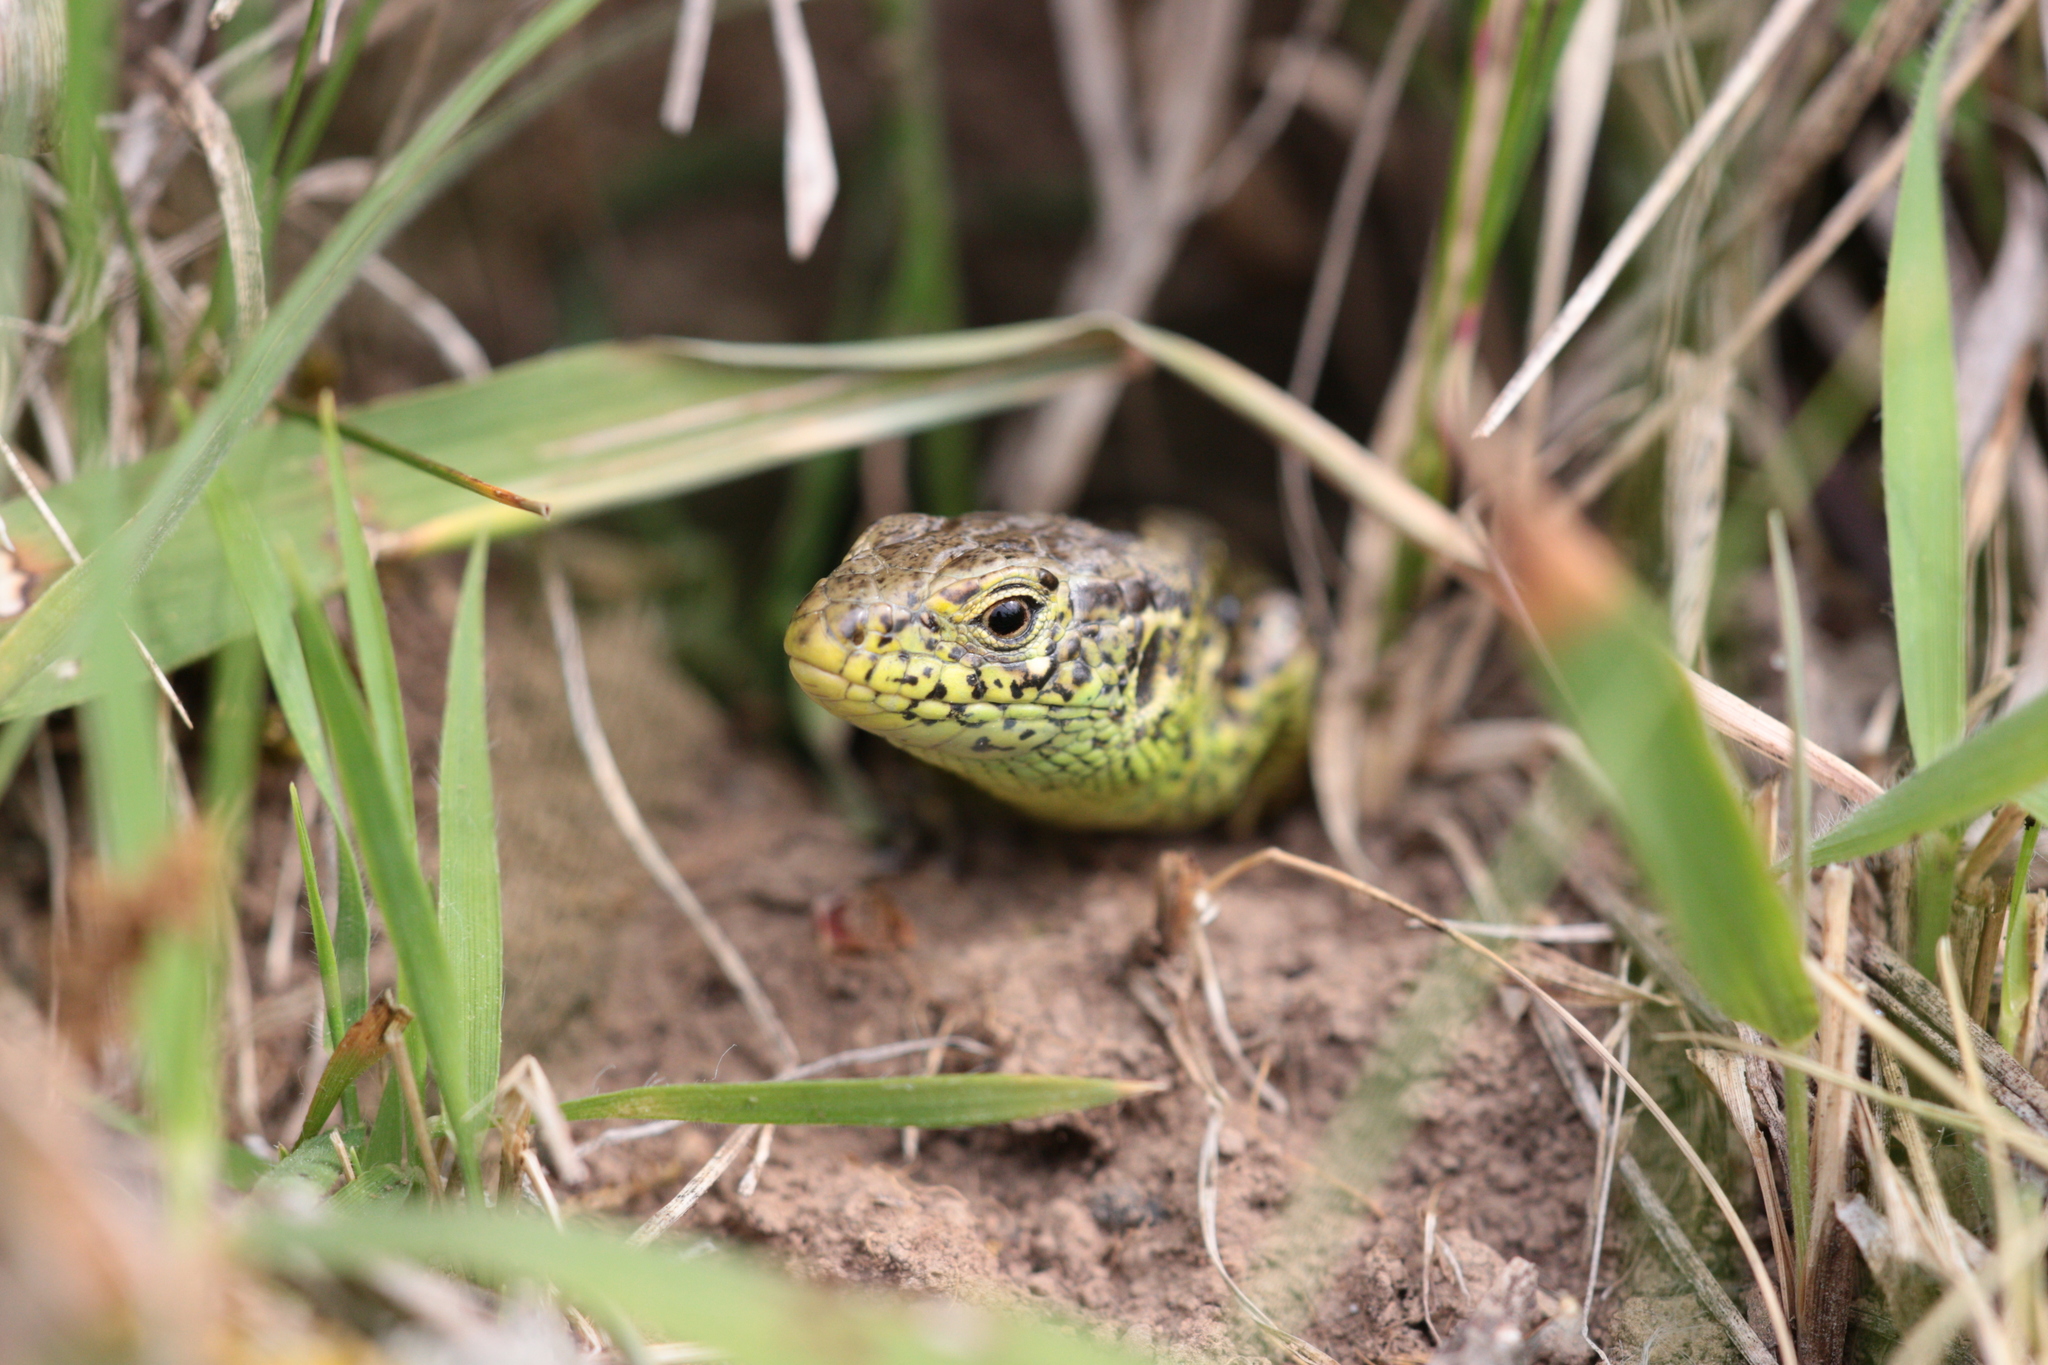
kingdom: Animalia
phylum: Chordata
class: Squamata
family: Lacertidae
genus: Lacerta
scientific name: Lacerta agilis
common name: Sand lizard
